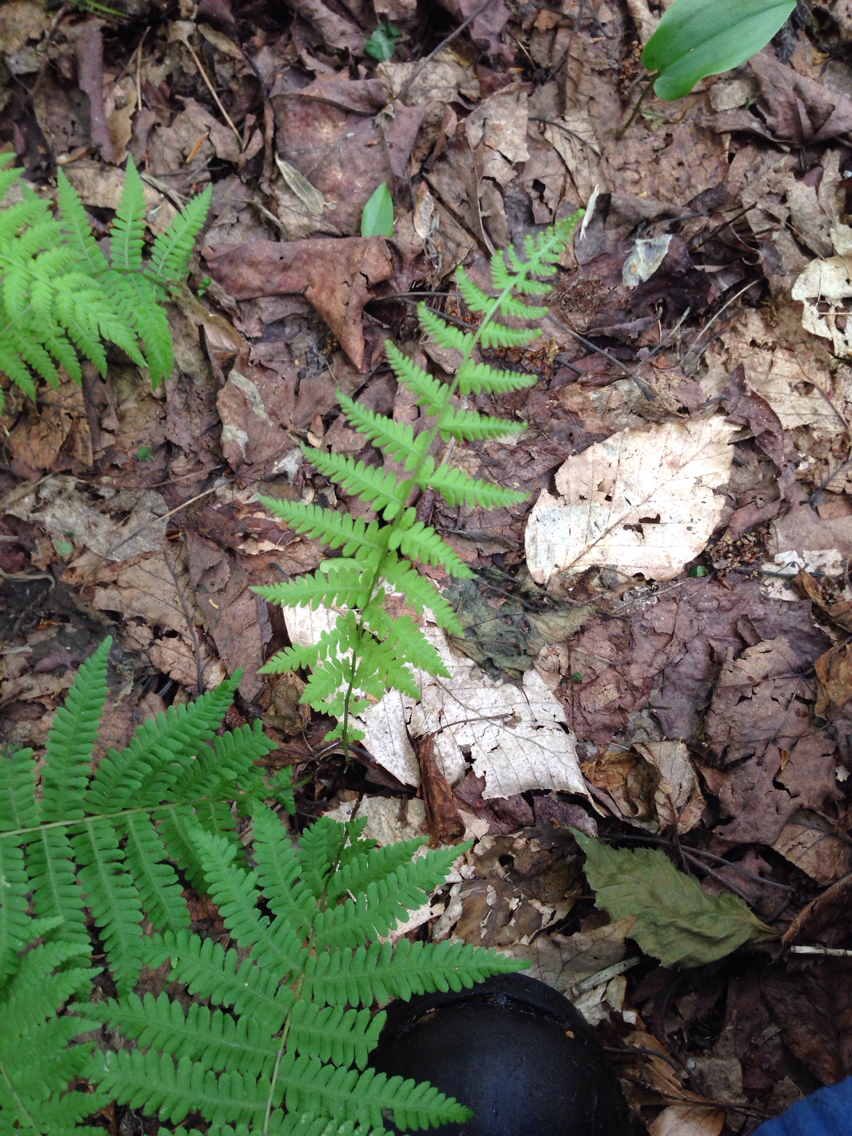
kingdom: Plantae
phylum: Tracheophyta
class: Polypodiopsida
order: Polypodiales
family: Thelypteridaceae
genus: Amauropelta
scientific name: Amauropelta noveboracensis
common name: New york fern
